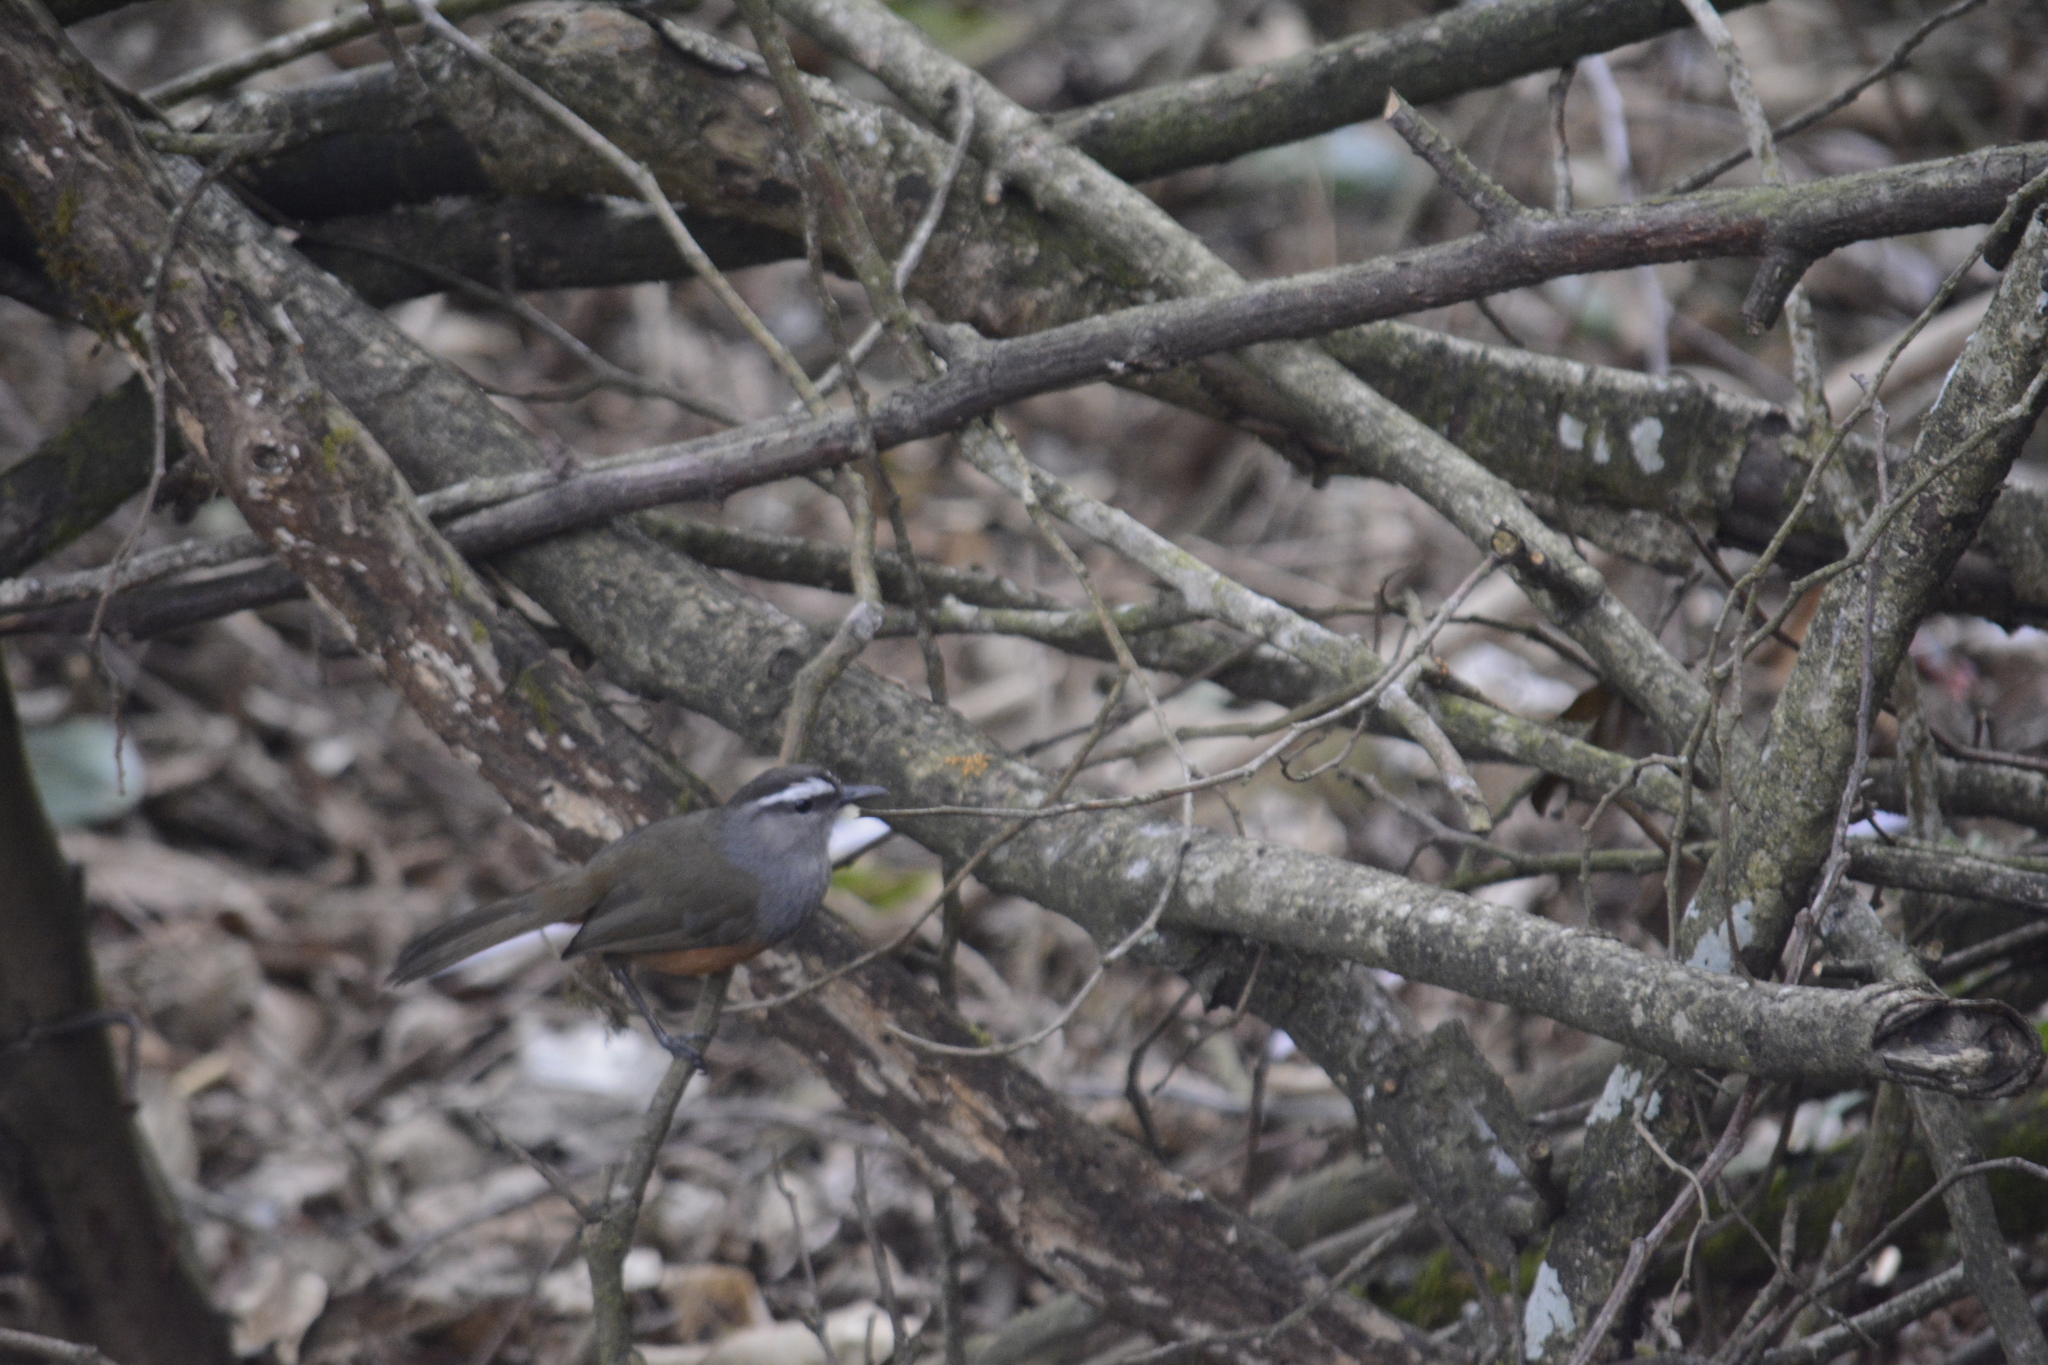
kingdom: Animalia
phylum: Chordata
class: Aves
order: Passeriformes
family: Leiothrichidae
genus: Trochalopteron
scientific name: Trochalopteron fairbanki
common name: Kerala laughingthrush
